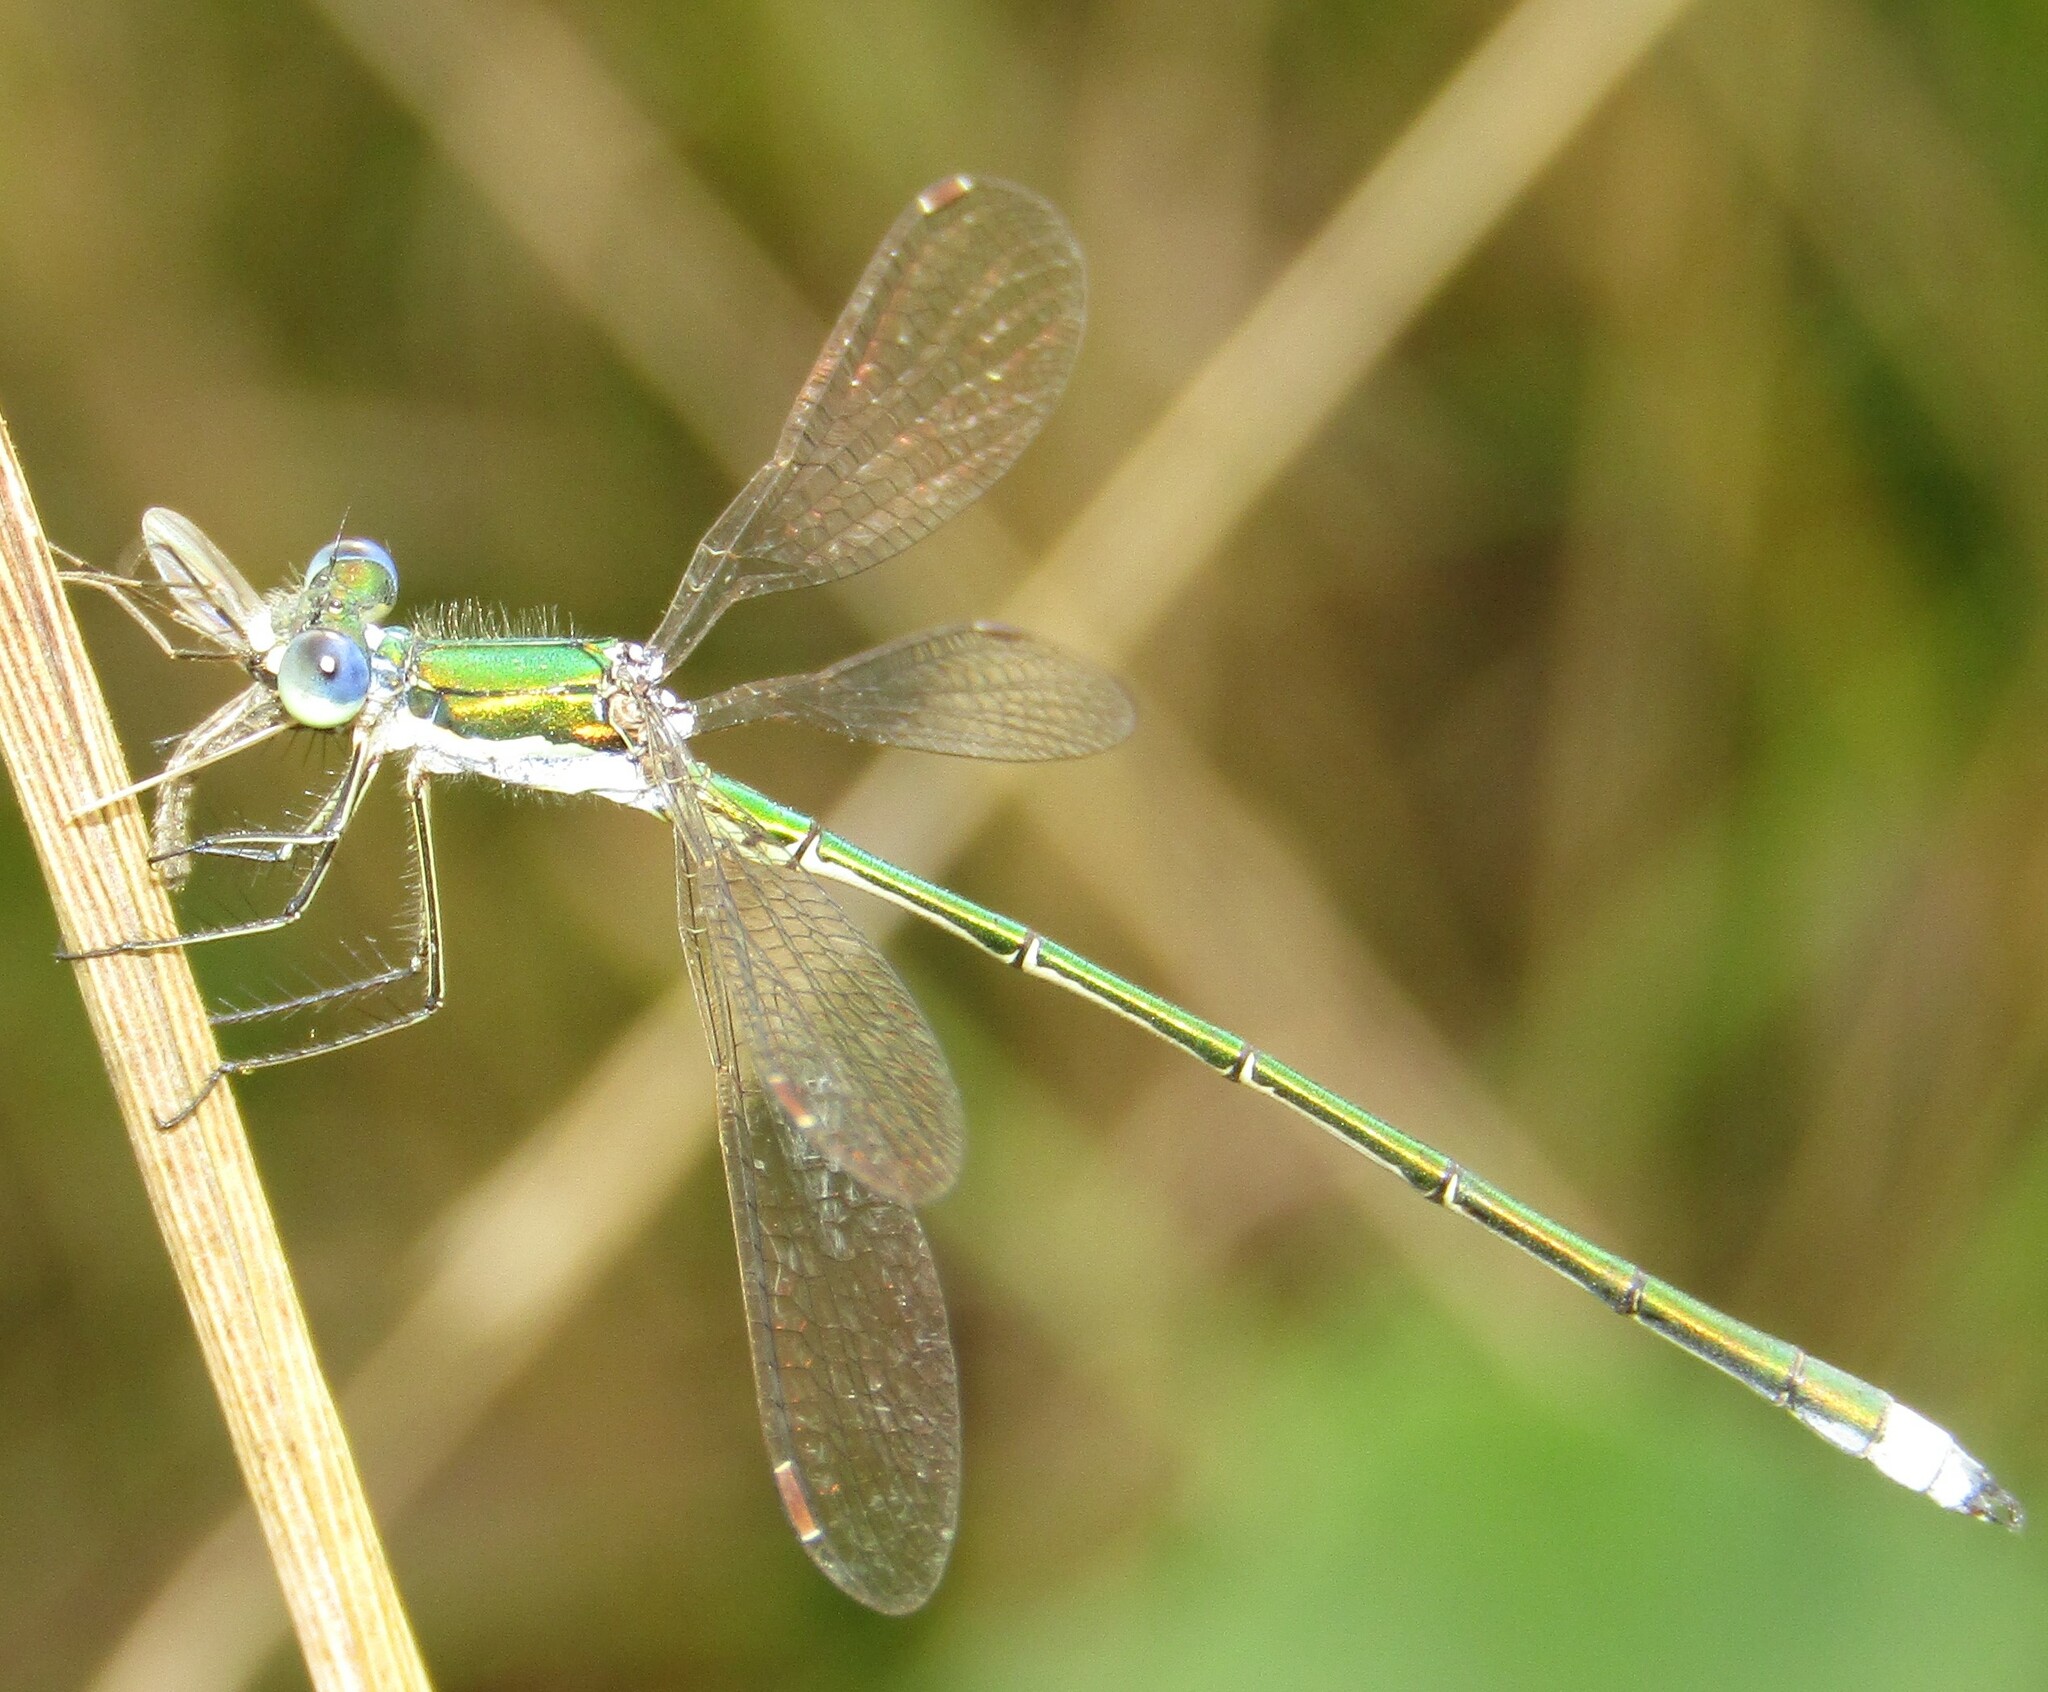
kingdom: Animalia
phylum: Arthropoda
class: Insecta
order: Odonata
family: Lestidae
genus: Lestes
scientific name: Lestes virens
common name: Small emerald spreadwing
